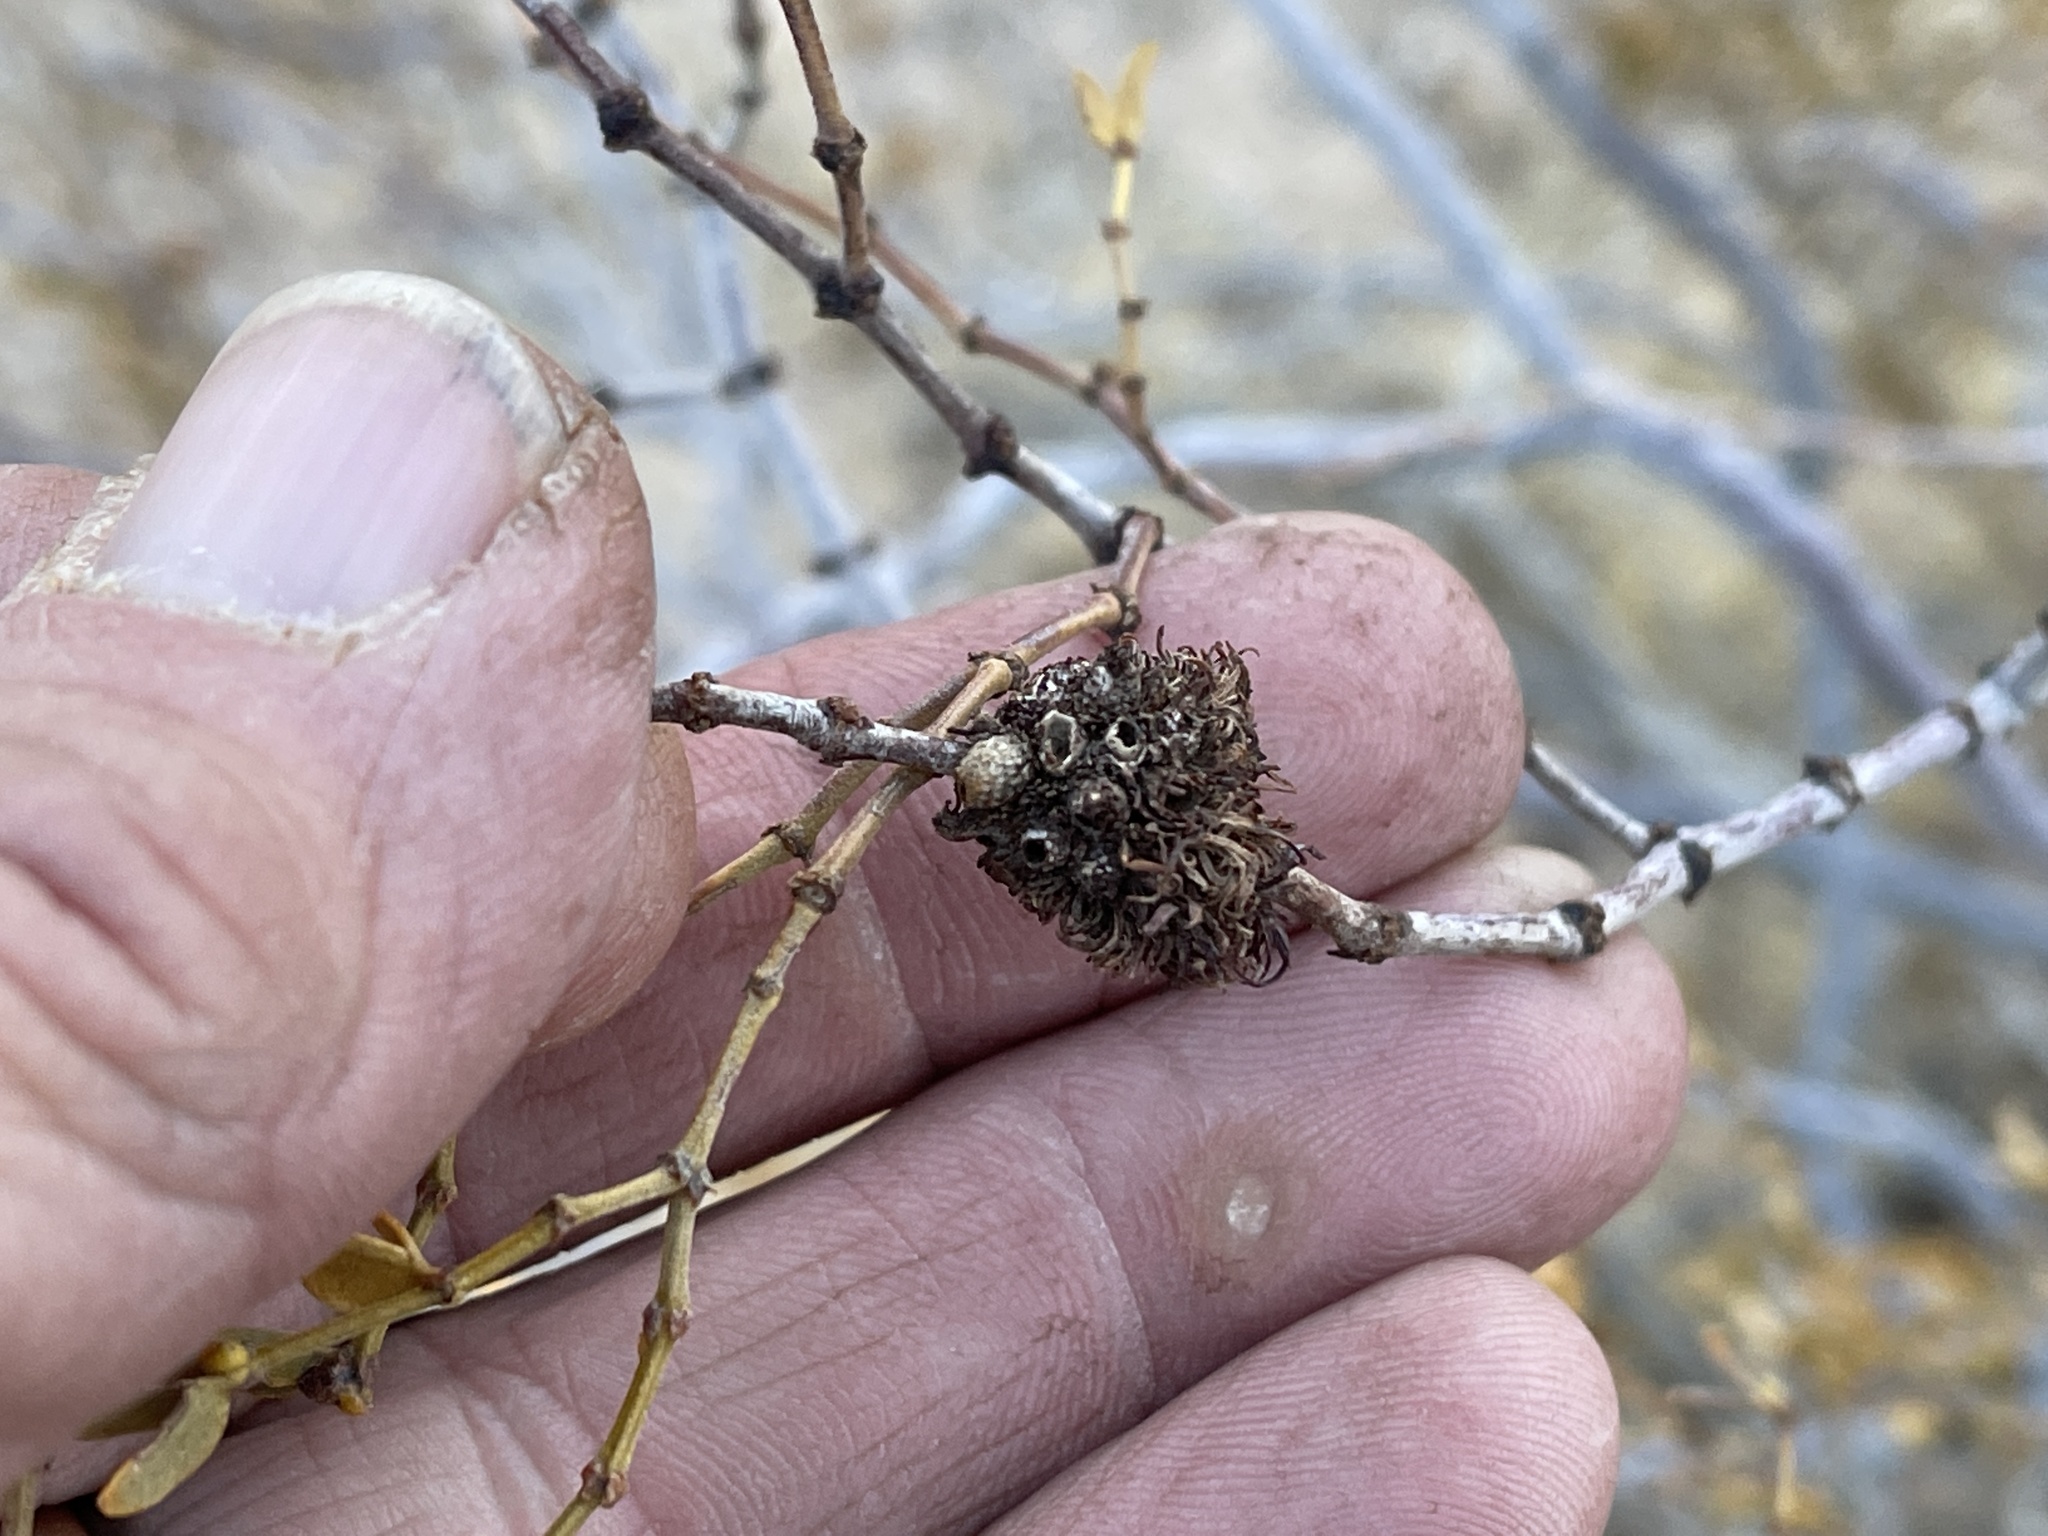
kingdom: Animalia
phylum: Arthropoda
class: Insecta
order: Diptera
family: Cecidomyiidae
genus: Asphondylia
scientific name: Asphondylia auripila
